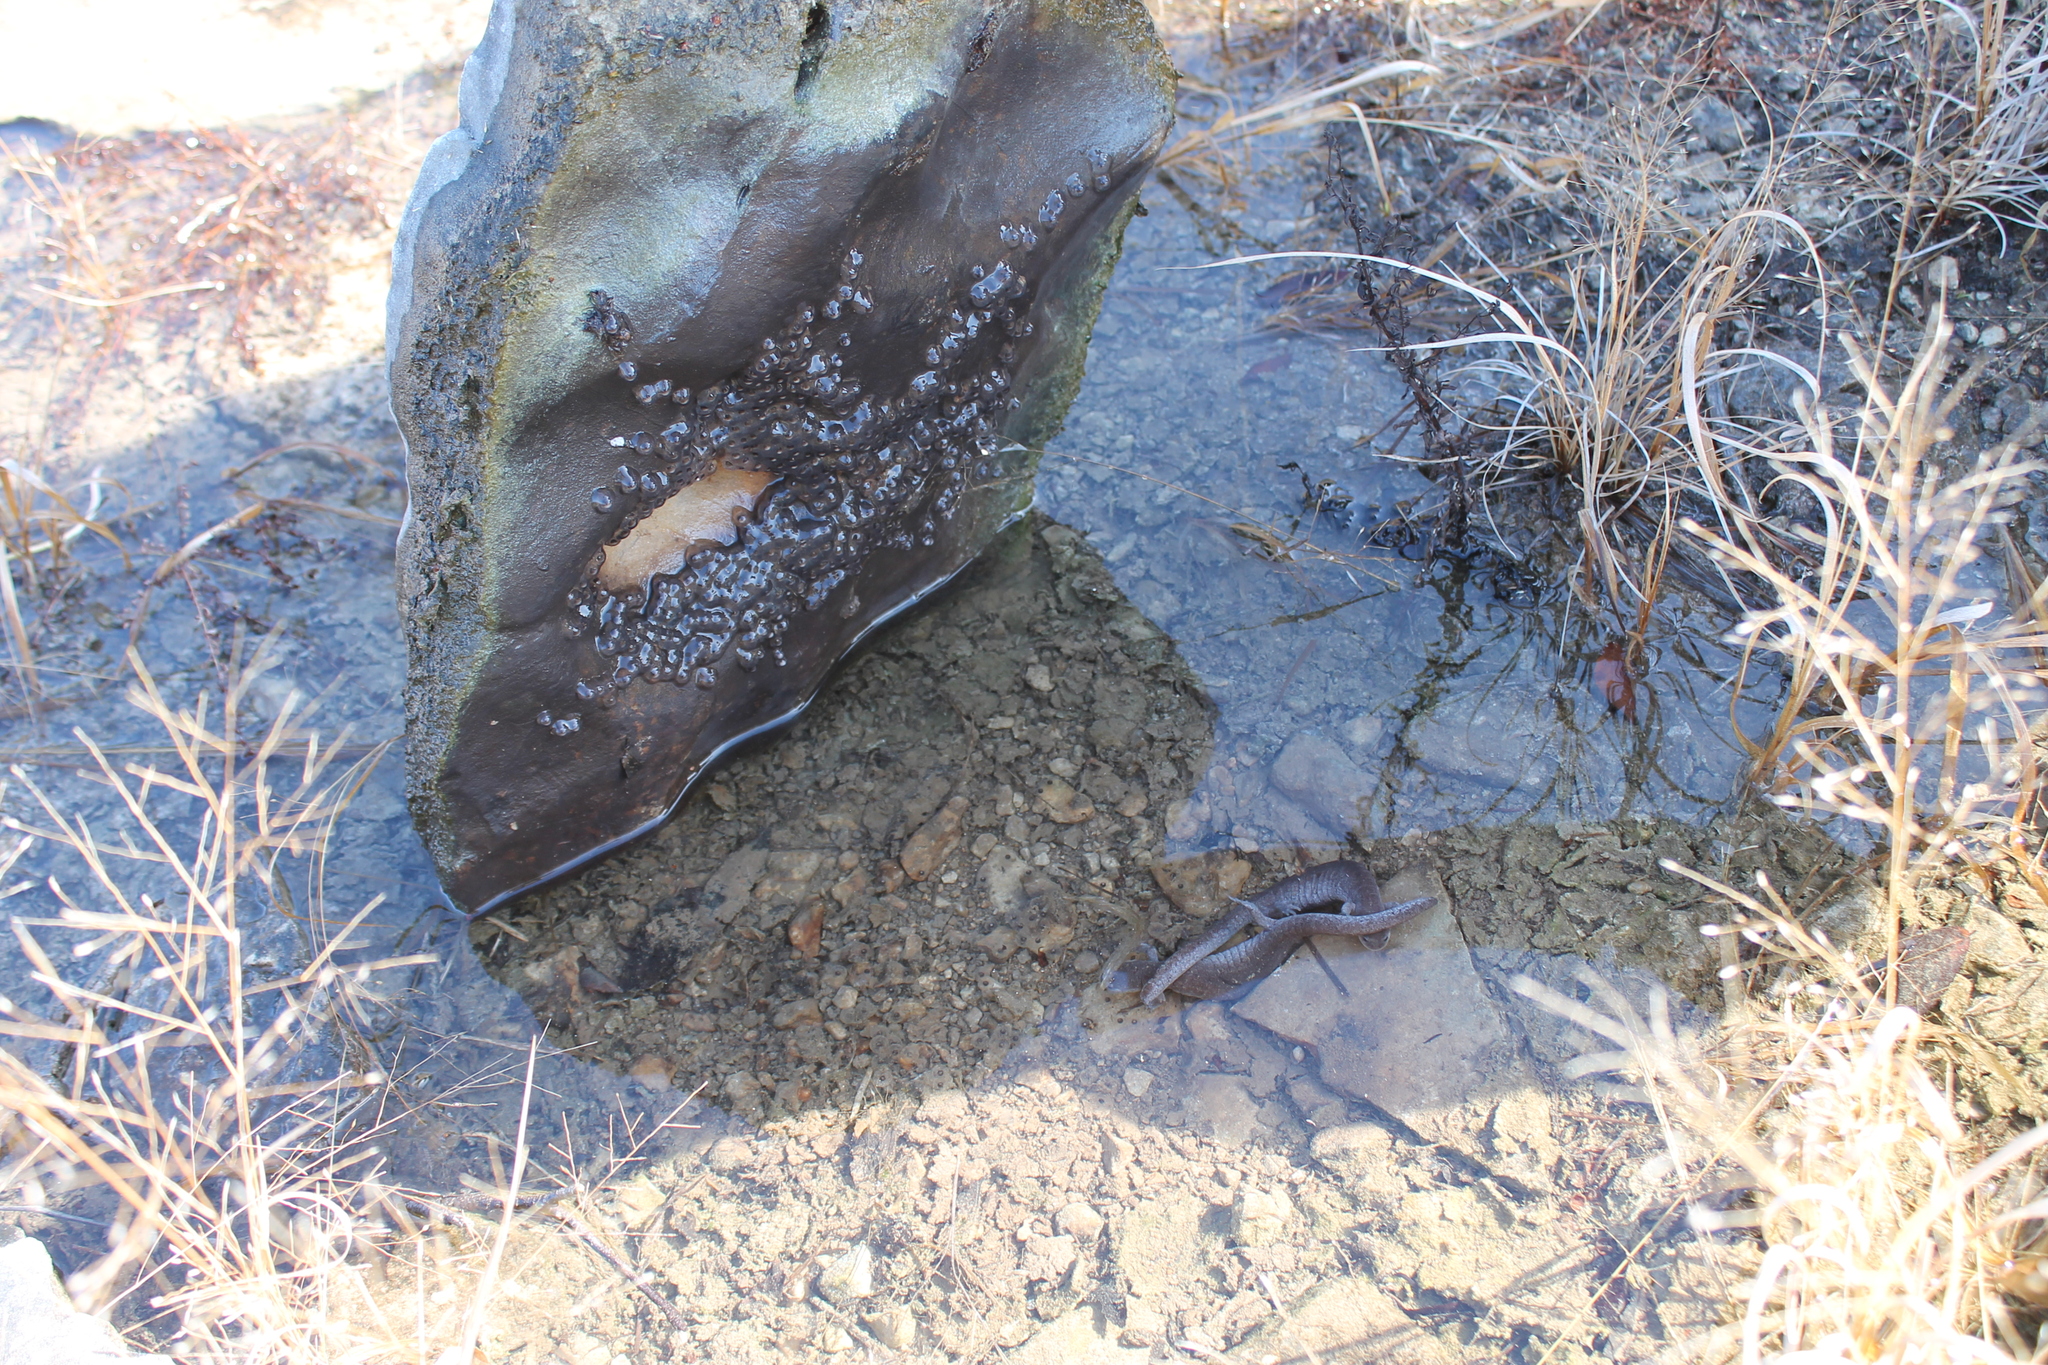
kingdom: Animalia
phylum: Chordata
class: Amphibia
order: Caudata
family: Ambystomatidae
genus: Ambystoma
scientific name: Ambystoma barbouri
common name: Streamside salamander
